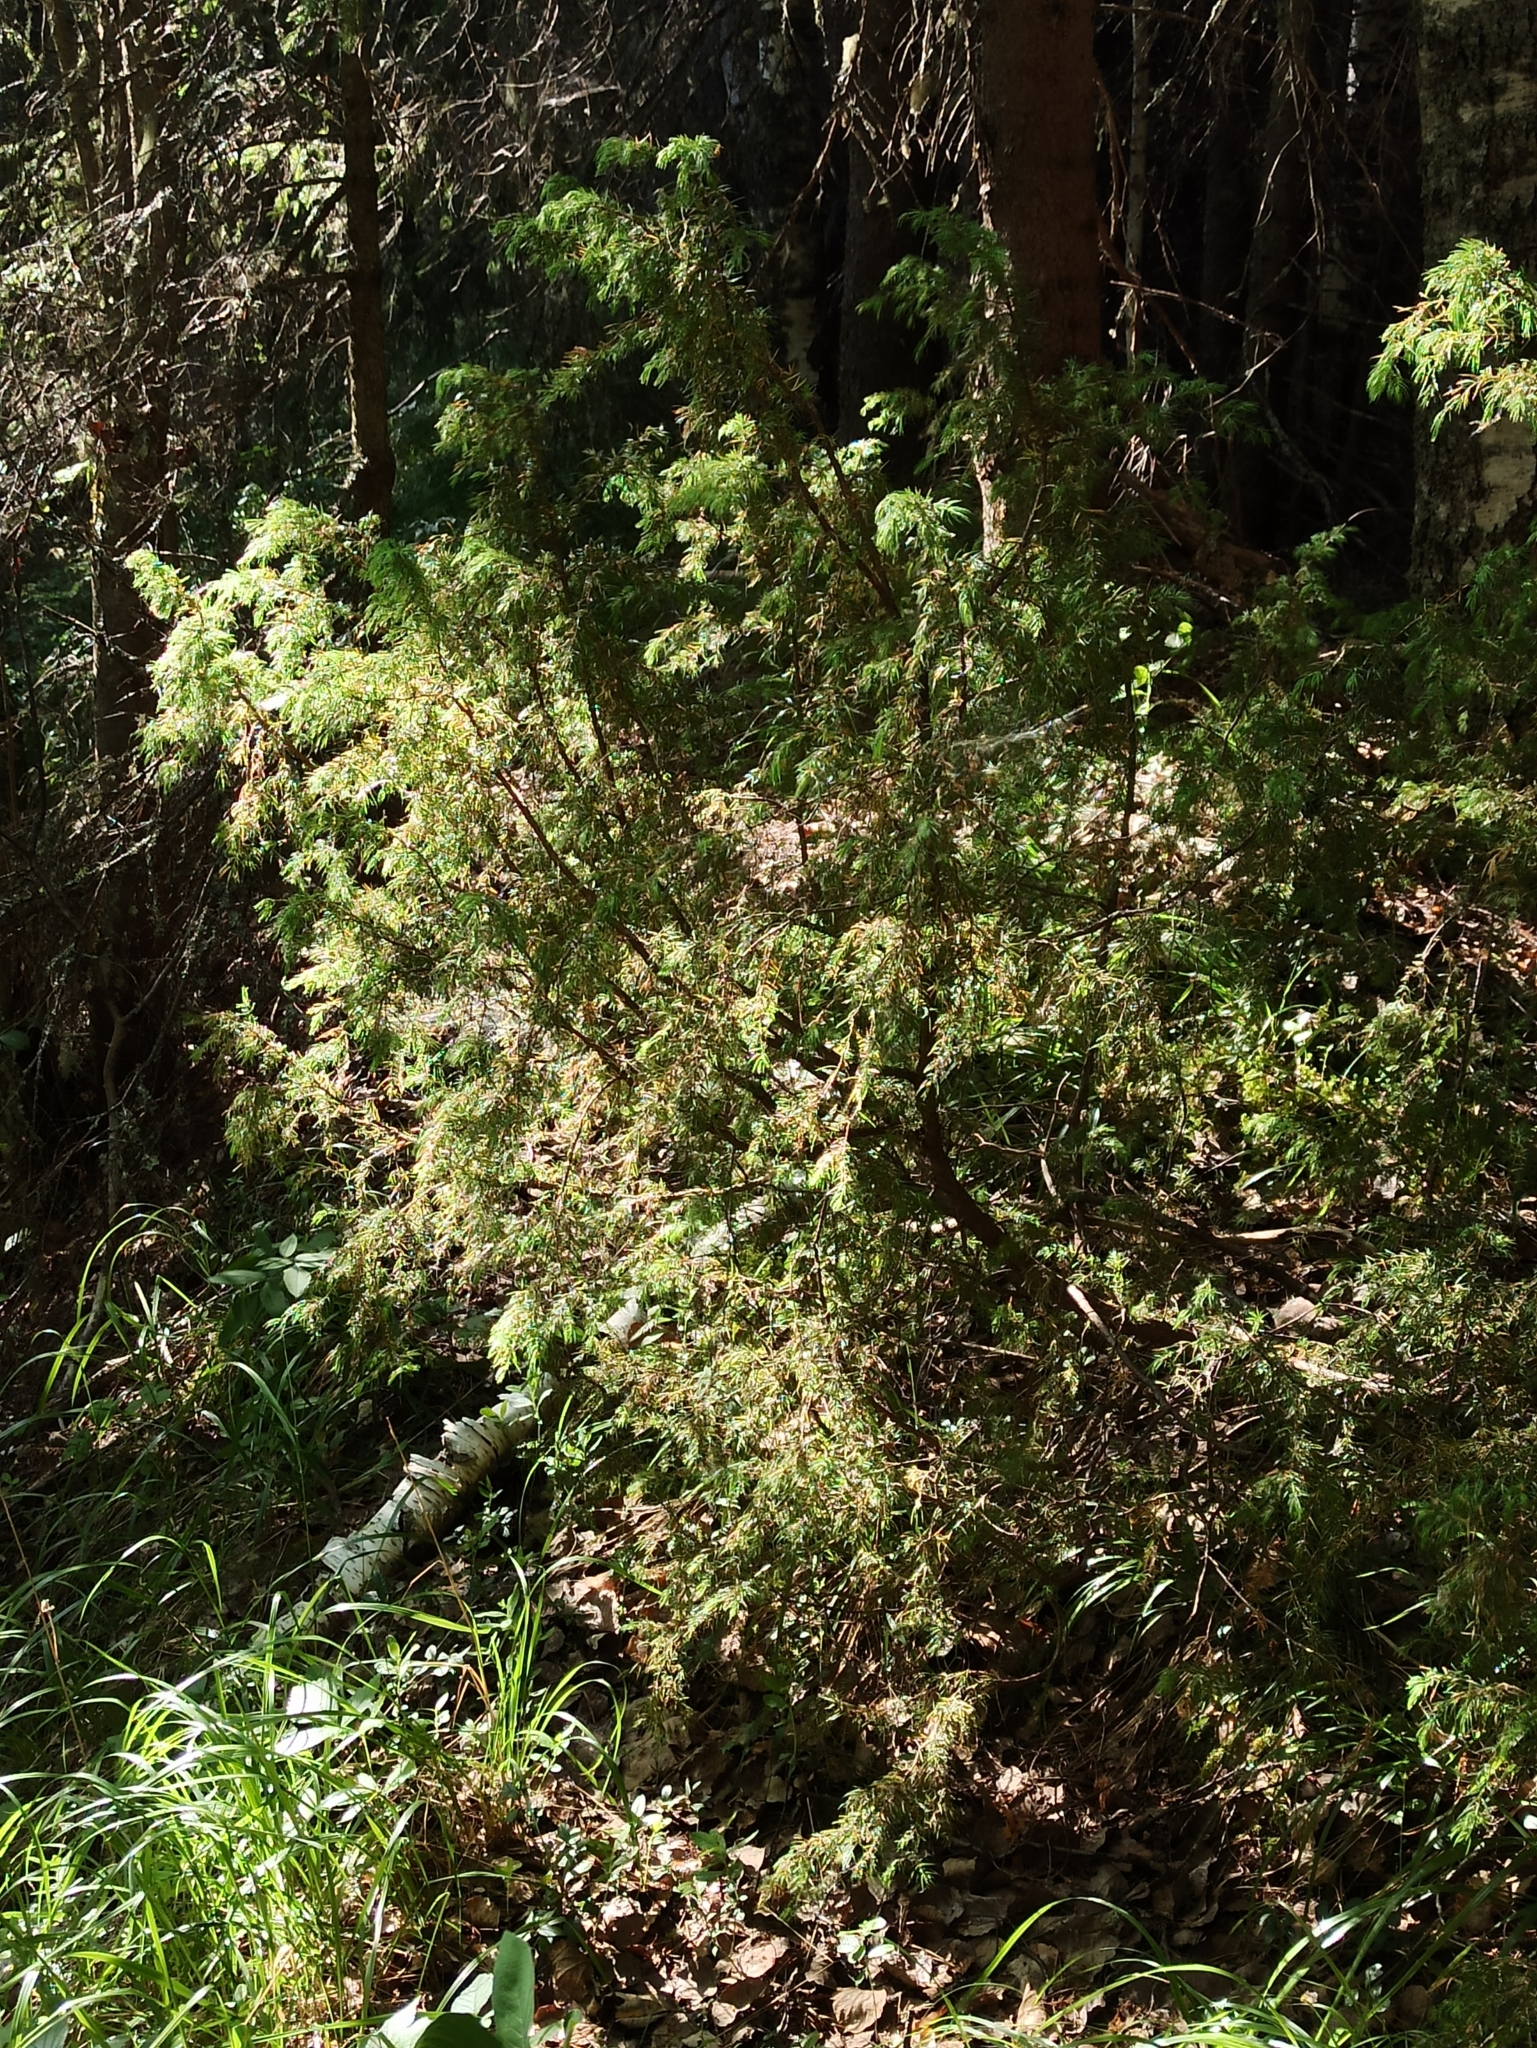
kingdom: Plantae
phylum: Tracheophyta
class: Pinopsida
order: Pinales
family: Cupressaceae
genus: Juniperus
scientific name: Juniperus communis
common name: Common juniper
